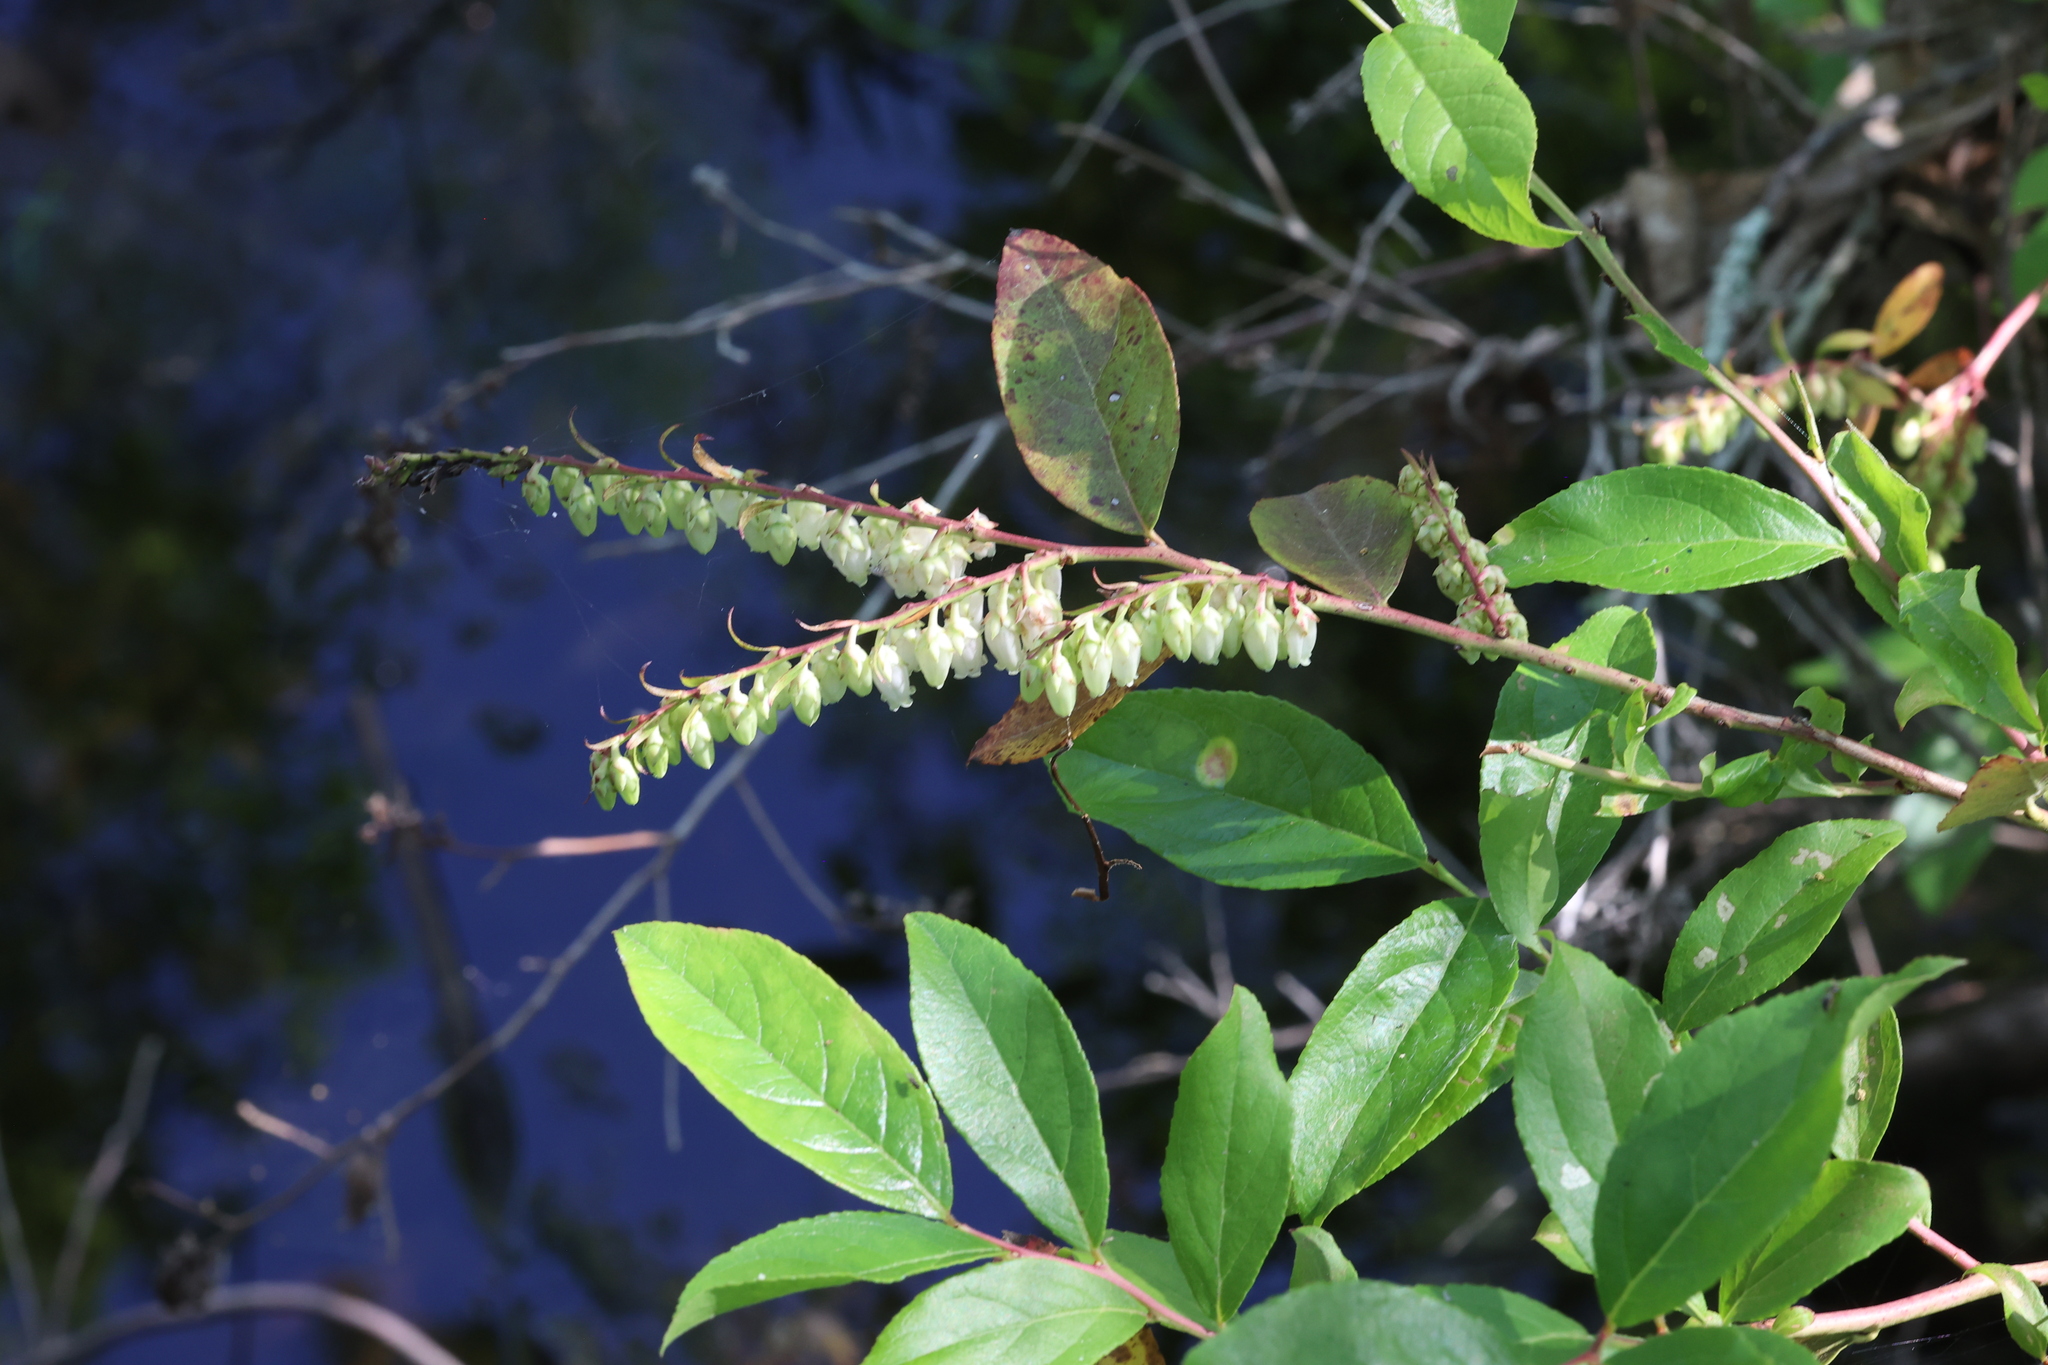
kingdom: Plantae
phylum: Tracheophyta
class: Magnoliopsida
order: Ericales
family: Ericaceae
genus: Eubotrys
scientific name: Eubotrys racemosa
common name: Fetterbush
